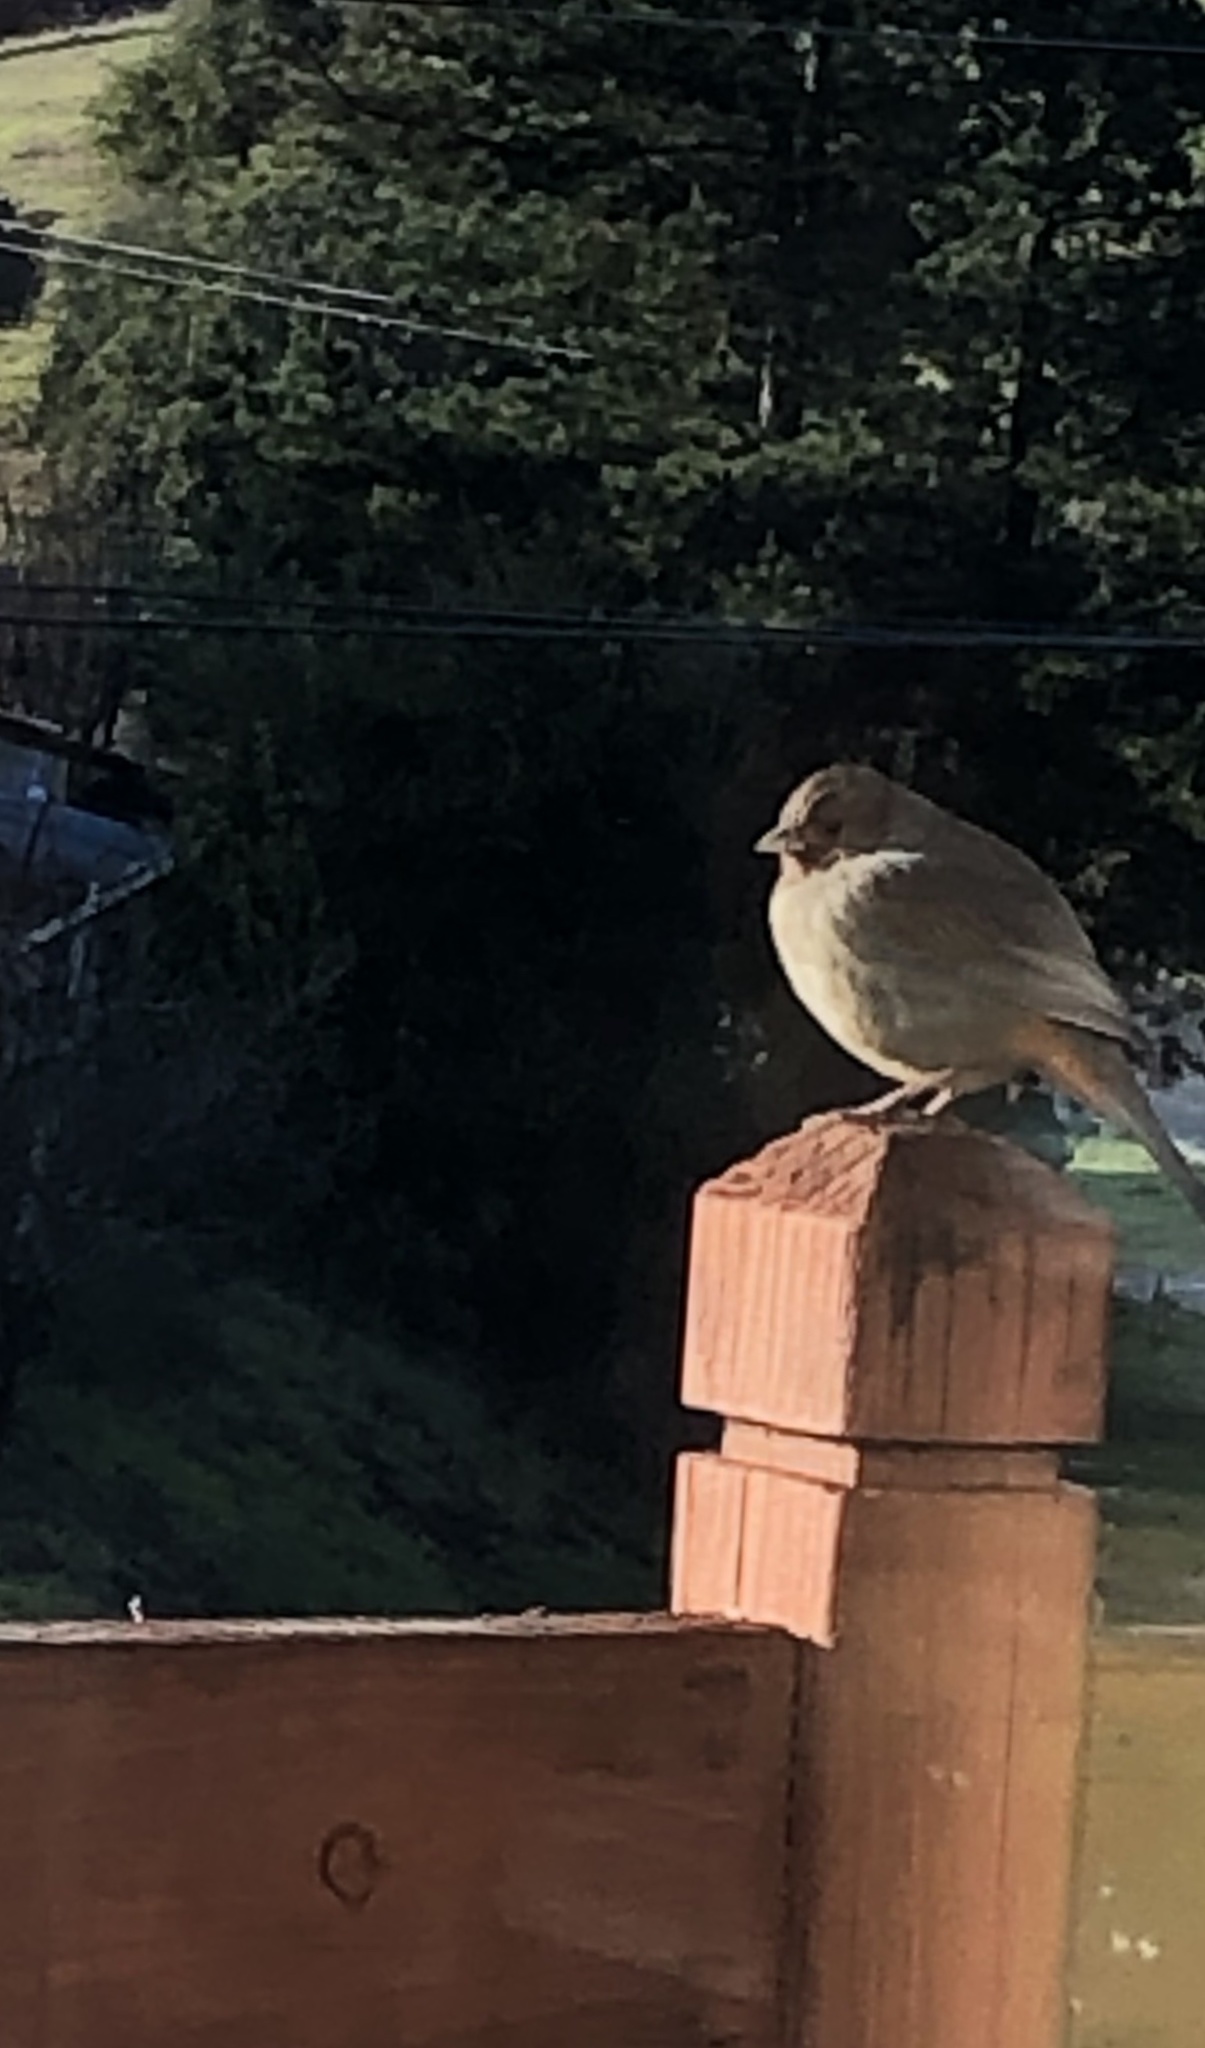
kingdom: Animalia
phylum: Chordata
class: Aves
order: Passeriformes
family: Passerellidae
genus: Melozone
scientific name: Melozone crissalis
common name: California towhee
